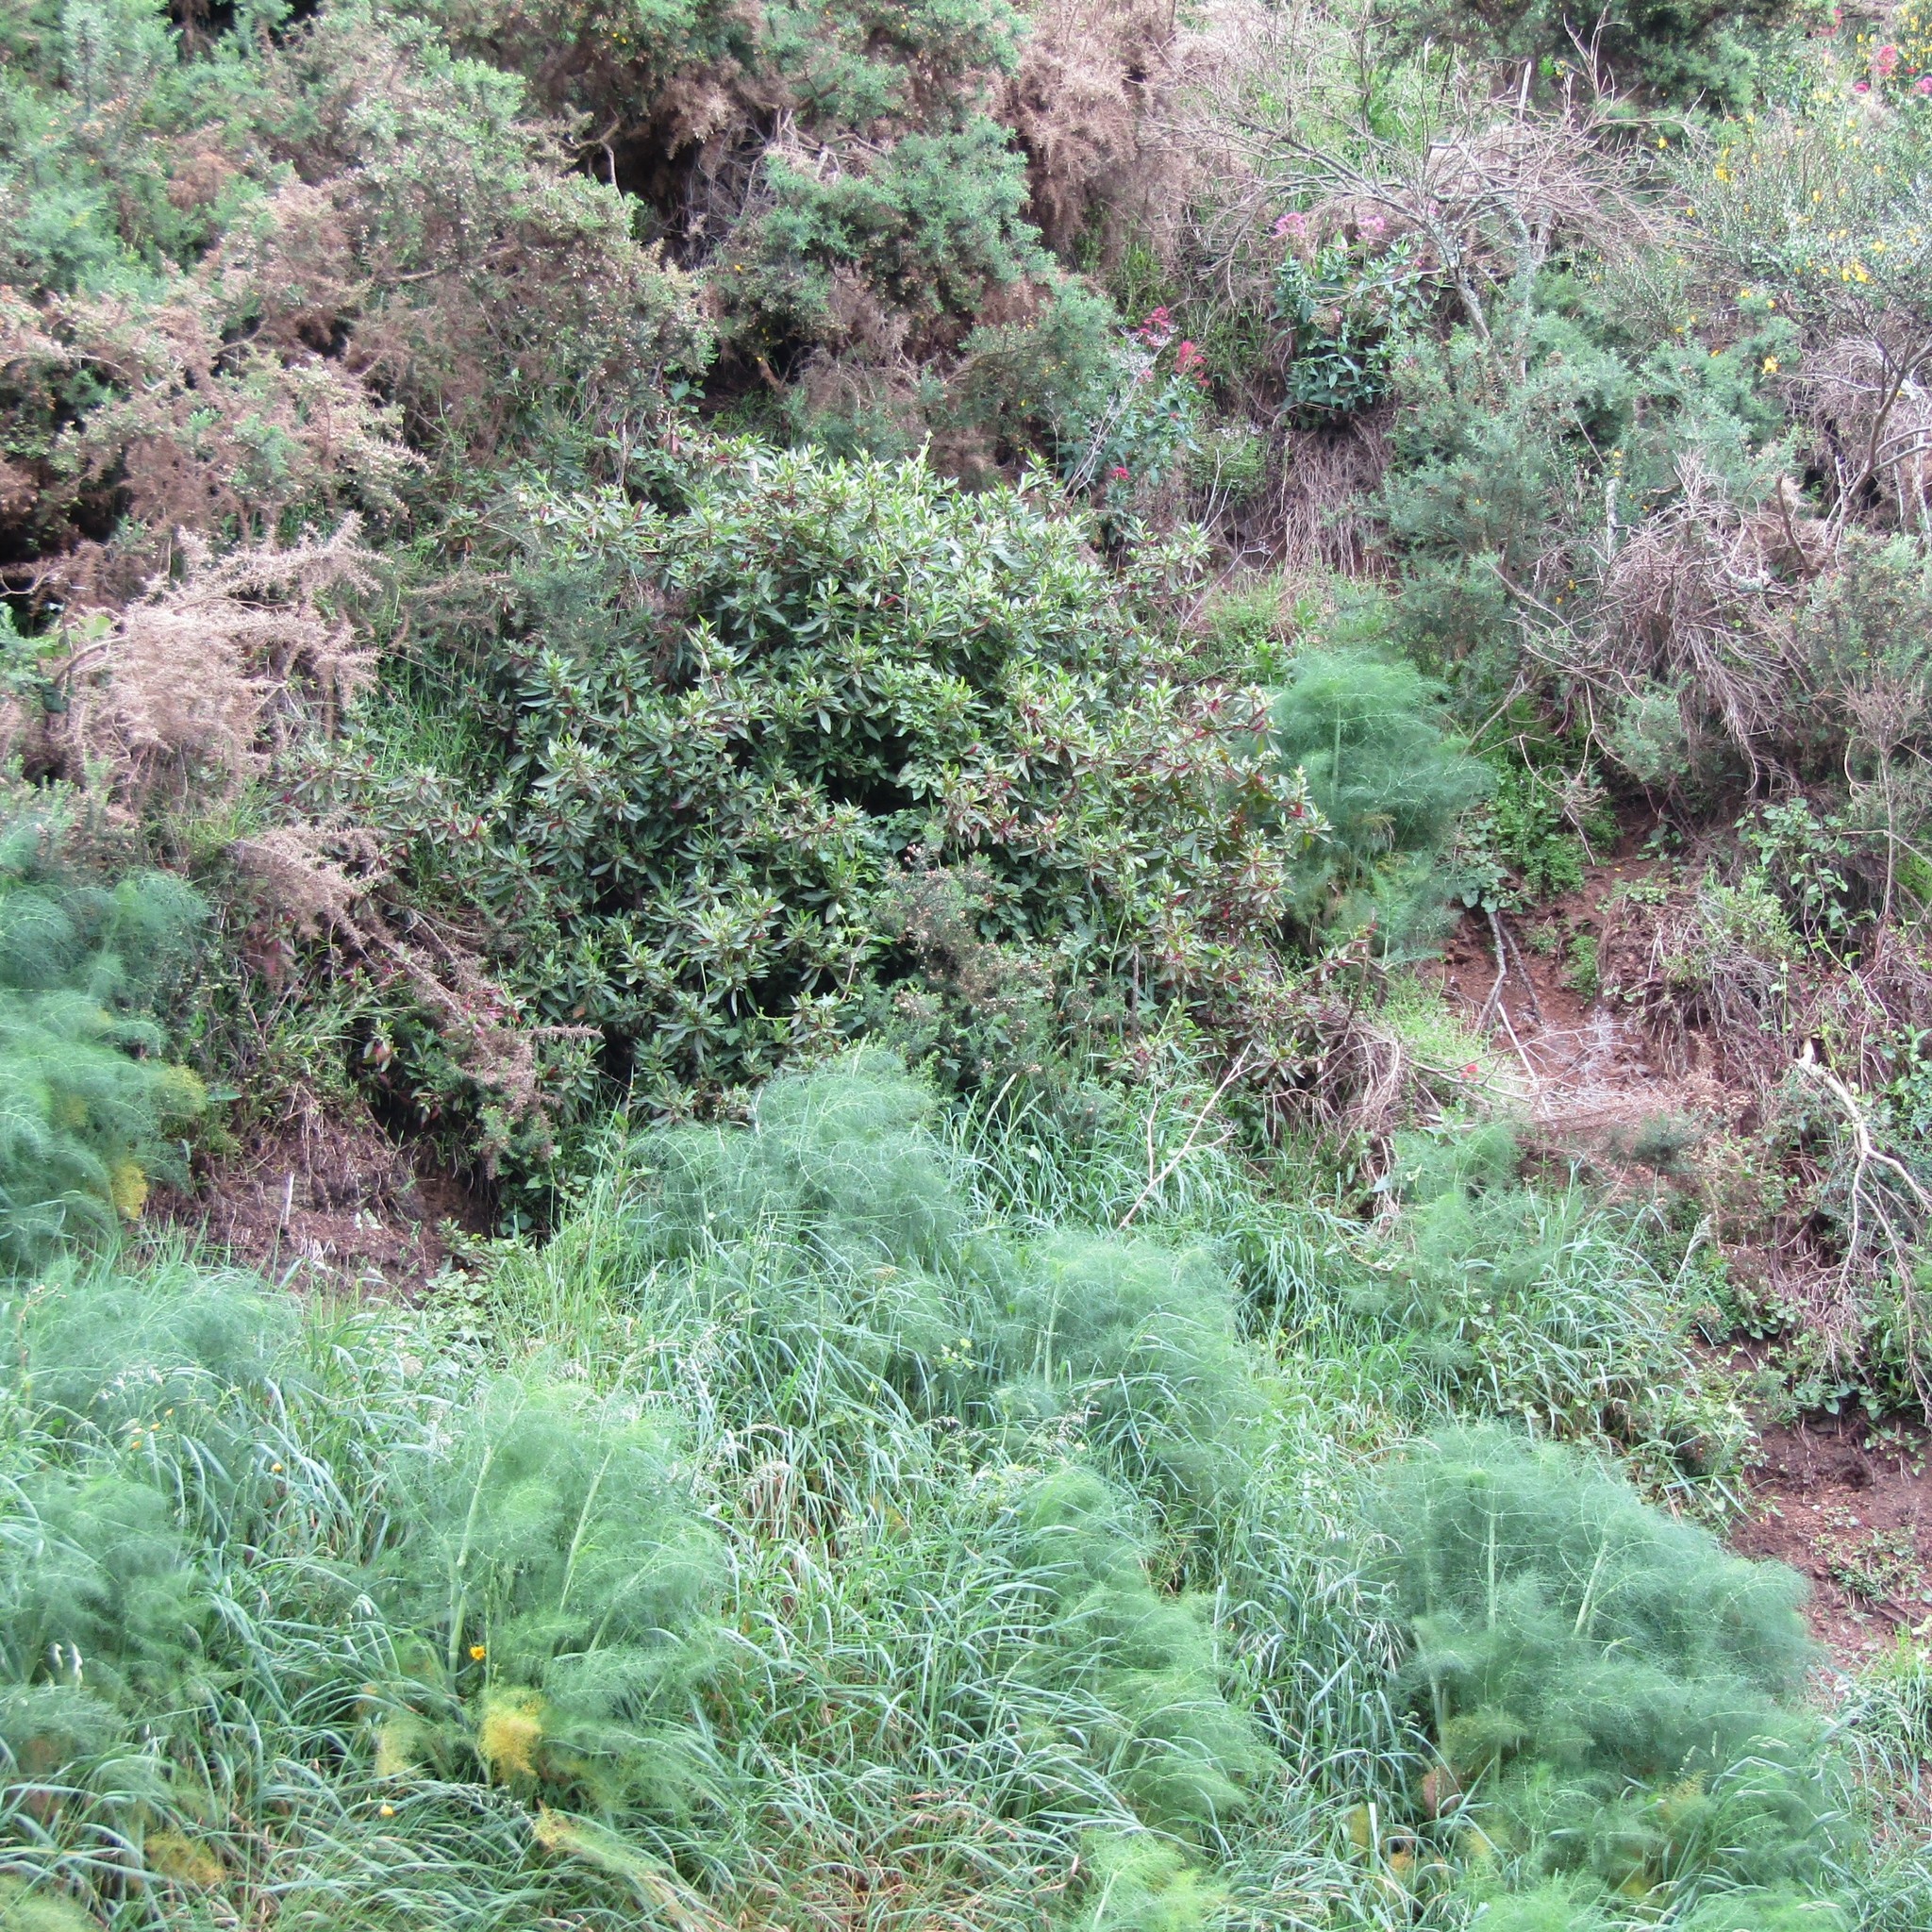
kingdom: Plantae
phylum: Tracheophyta
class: Magnoliopsida
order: Caryophyllales
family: Phytolaccaceae
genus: Phytolacca
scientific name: Phytolacca icosandra
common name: Button pokeweed
